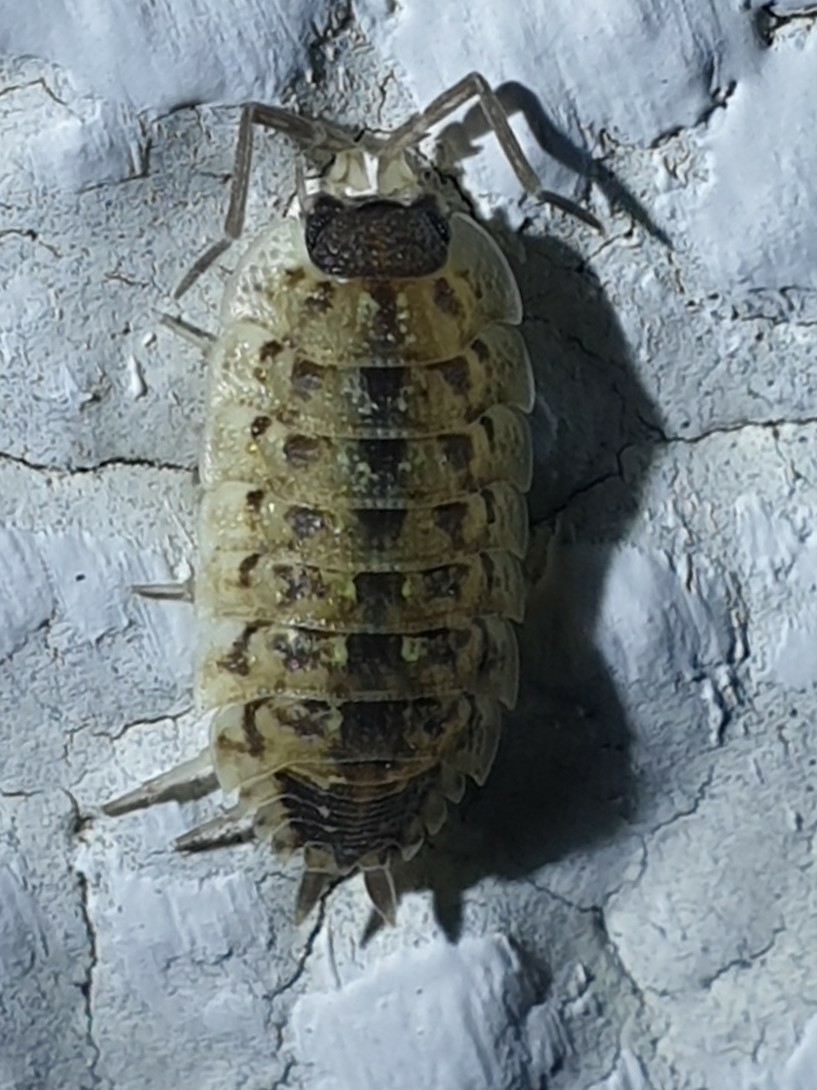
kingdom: Animalia
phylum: Arthropoda
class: Malacostraca
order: Isopoda
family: Porcellionidae
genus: Porcellio
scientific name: Porcellio spinicornis
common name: Painted woodlouse
